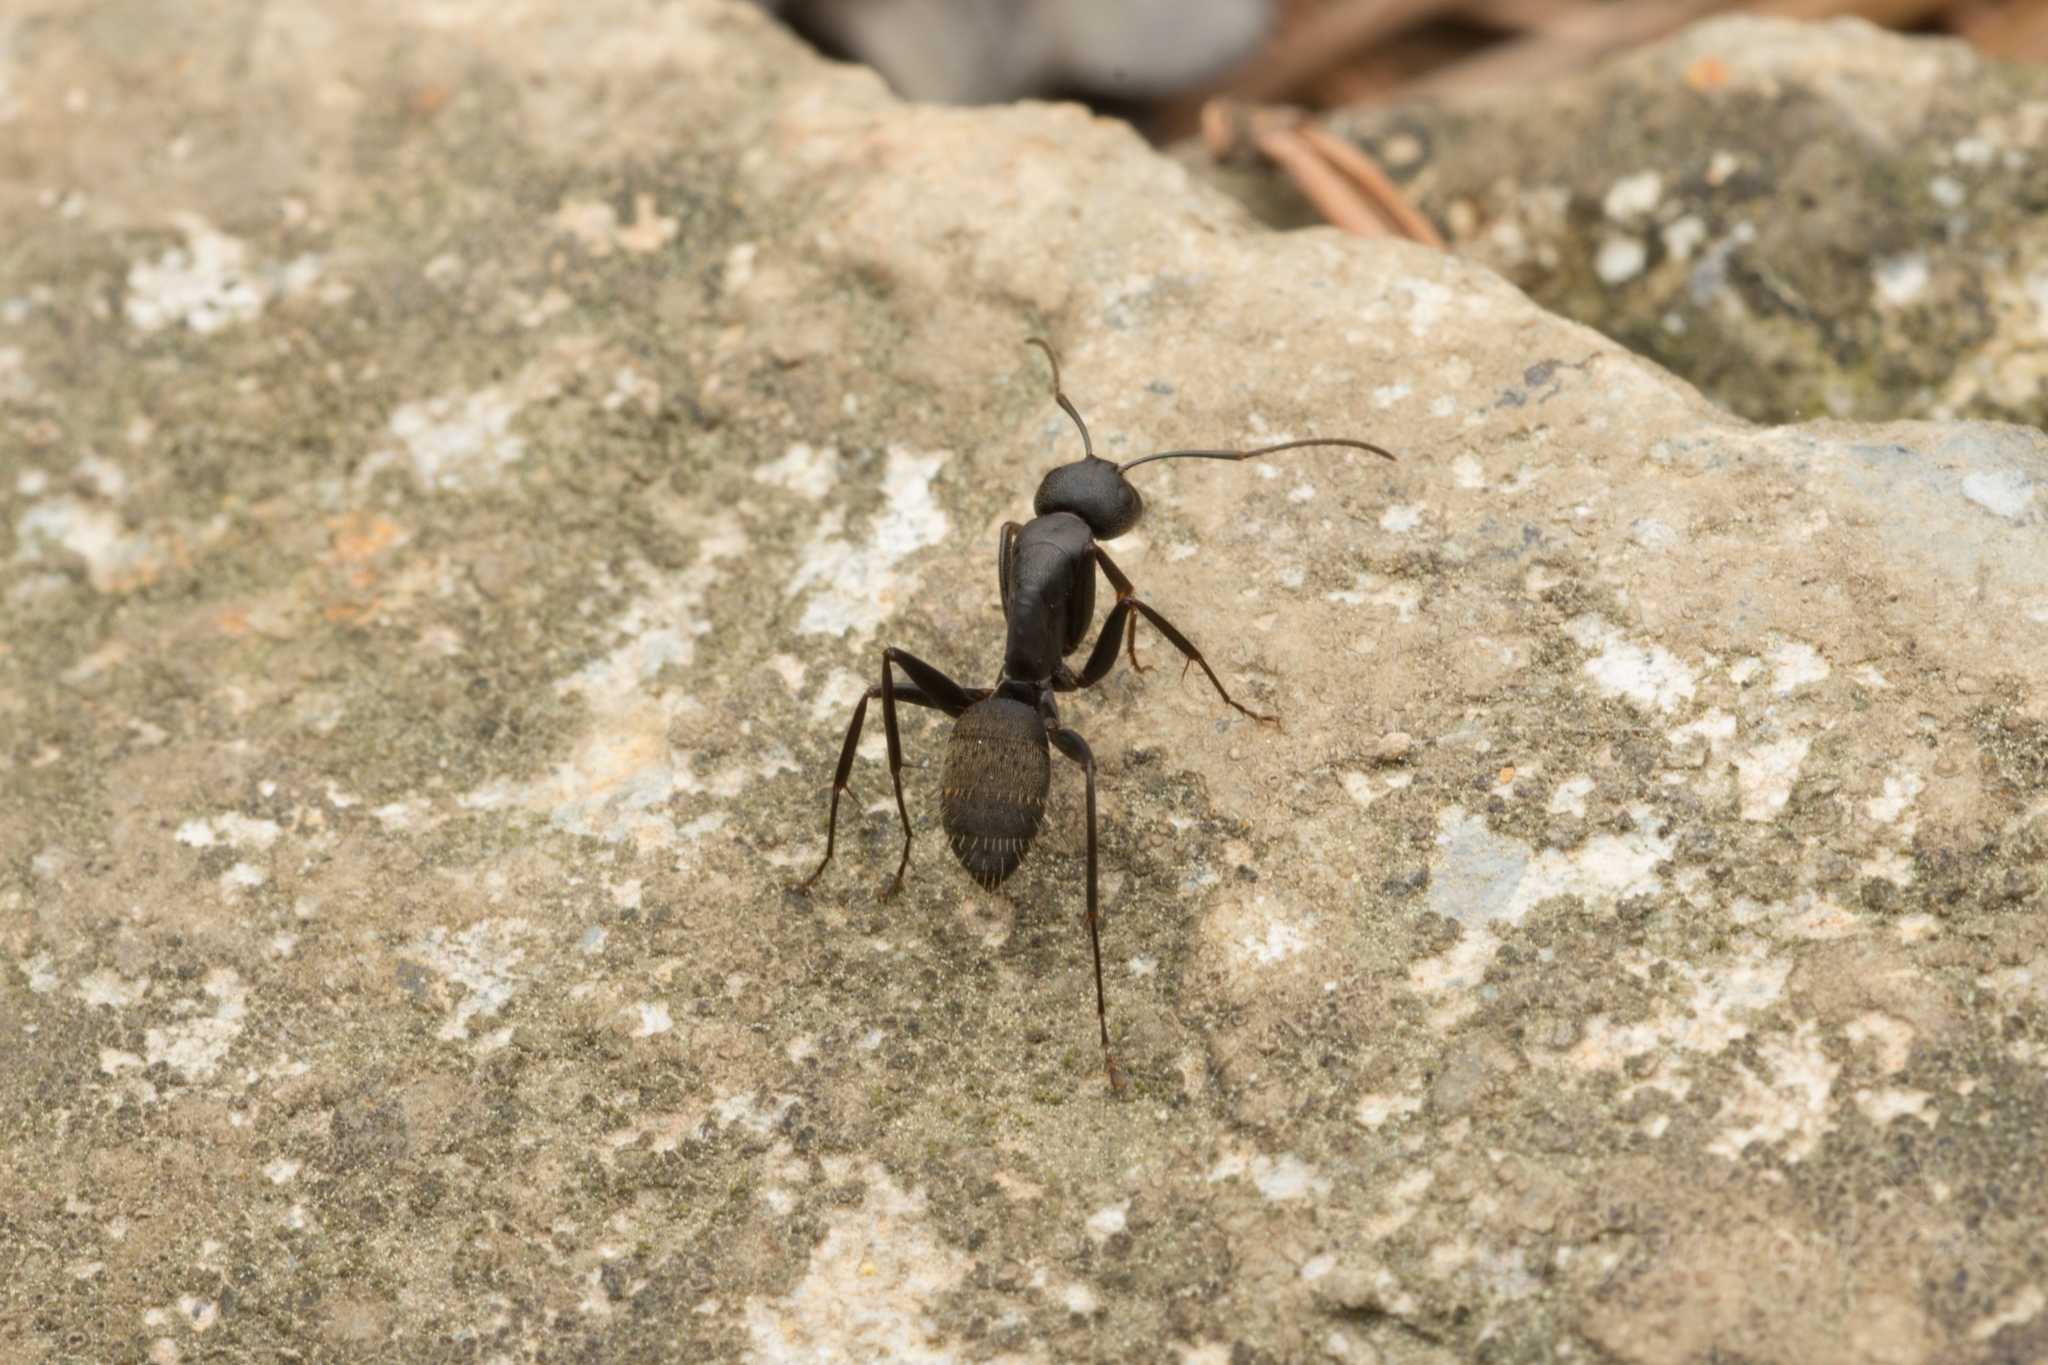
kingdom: Animalia
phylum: Arthropoda
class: Insecta
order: Hymenoptera
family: Formicidae
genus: Camponotus
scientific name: Camponotus japonicus
